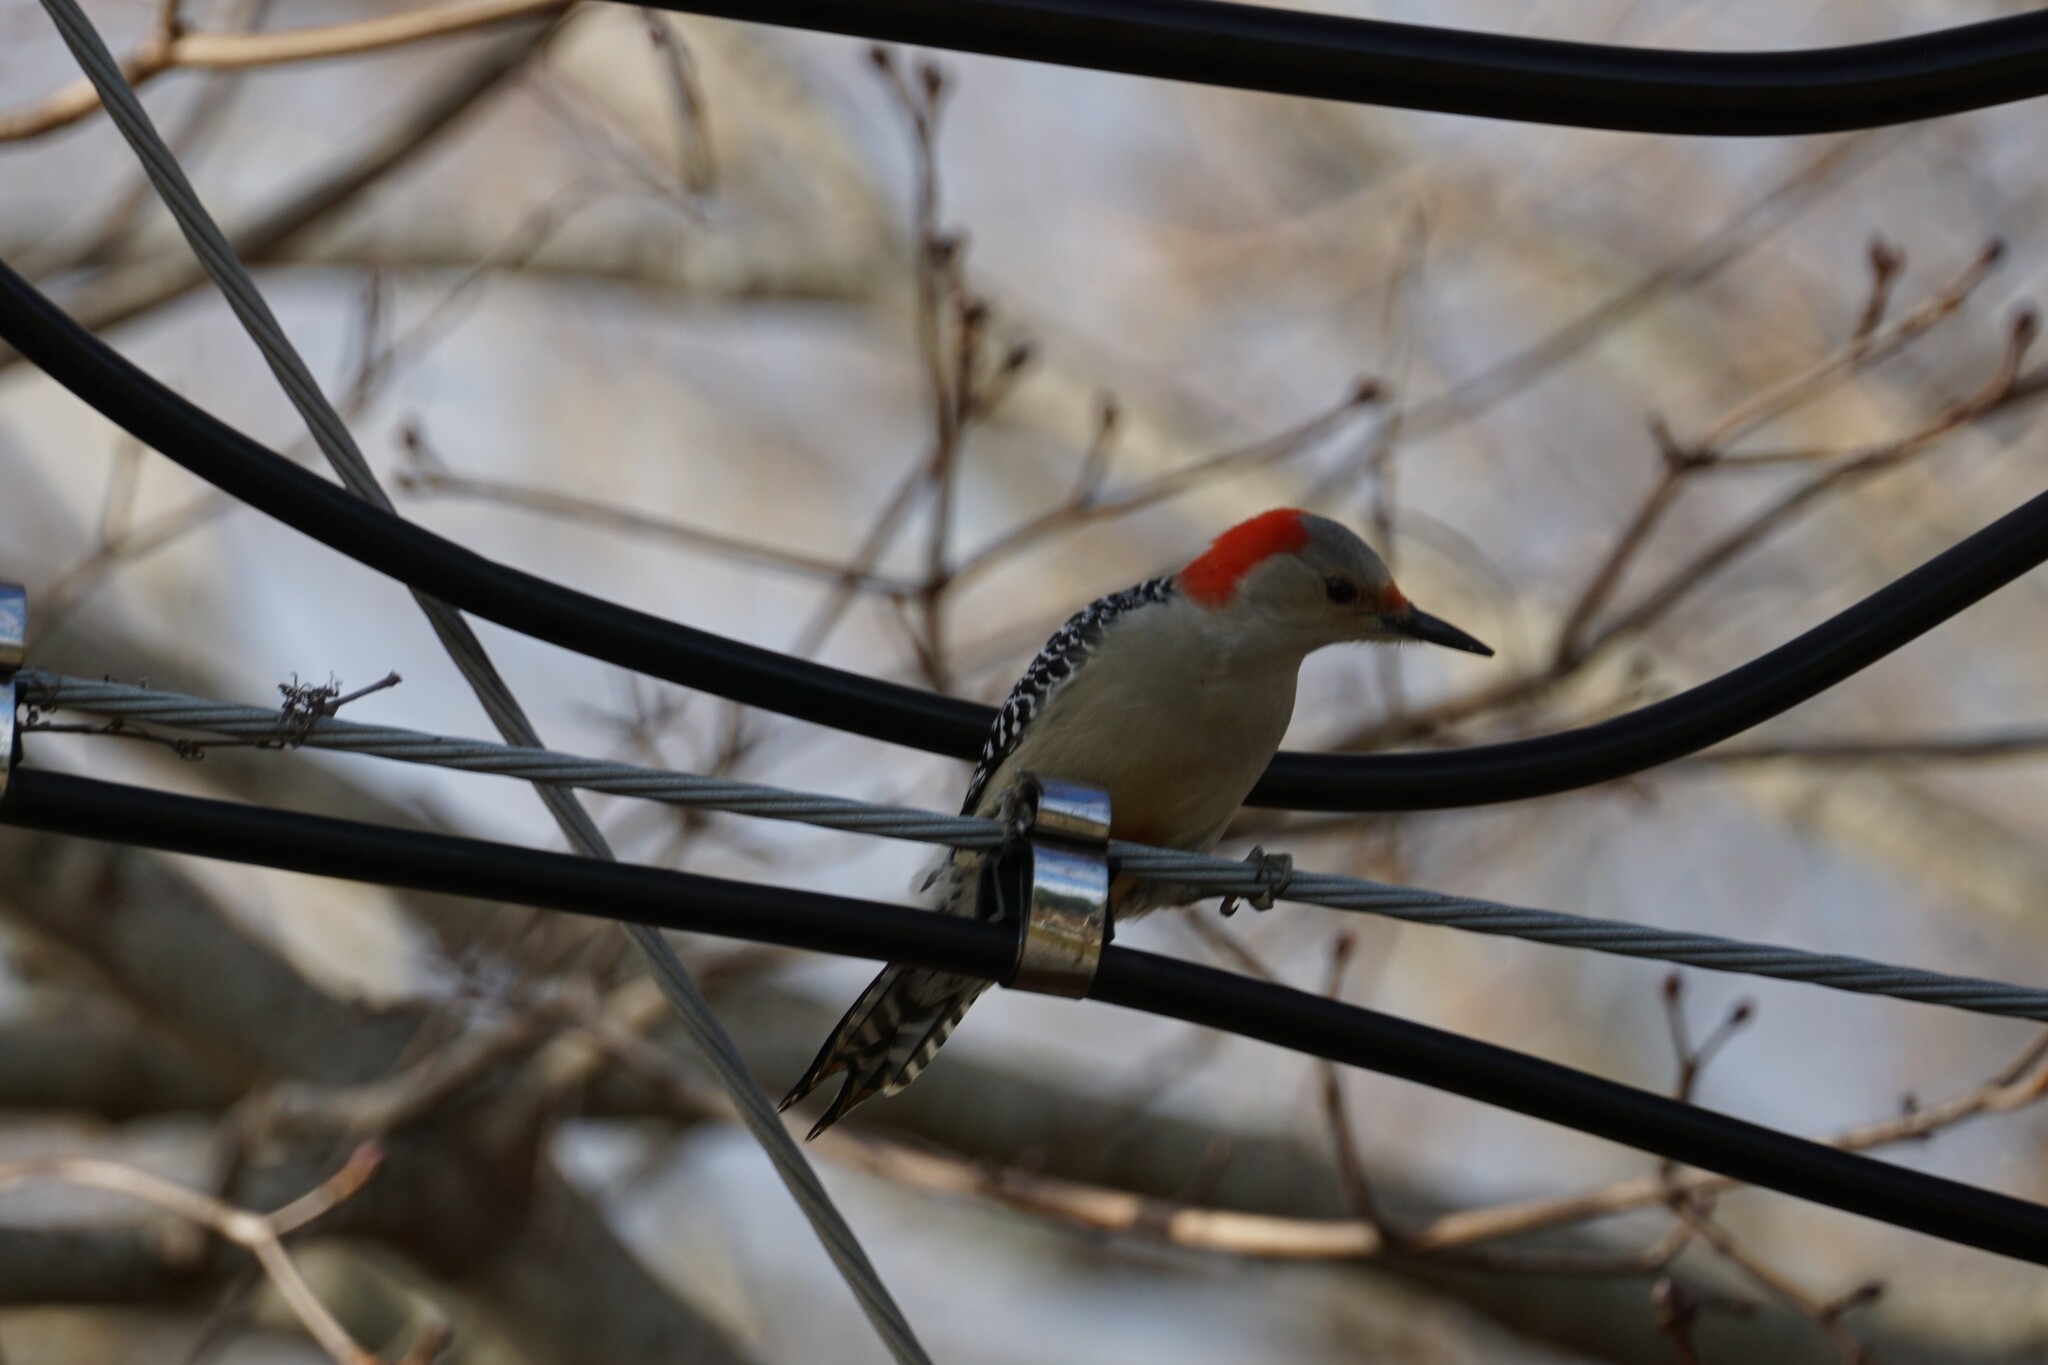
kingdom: Animalia
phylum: Chordata
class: Aves
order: Piciformes
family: Picidae
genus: Melanerpes
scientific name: Melanerpes carolinus
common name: Red-bellied woodpecker
